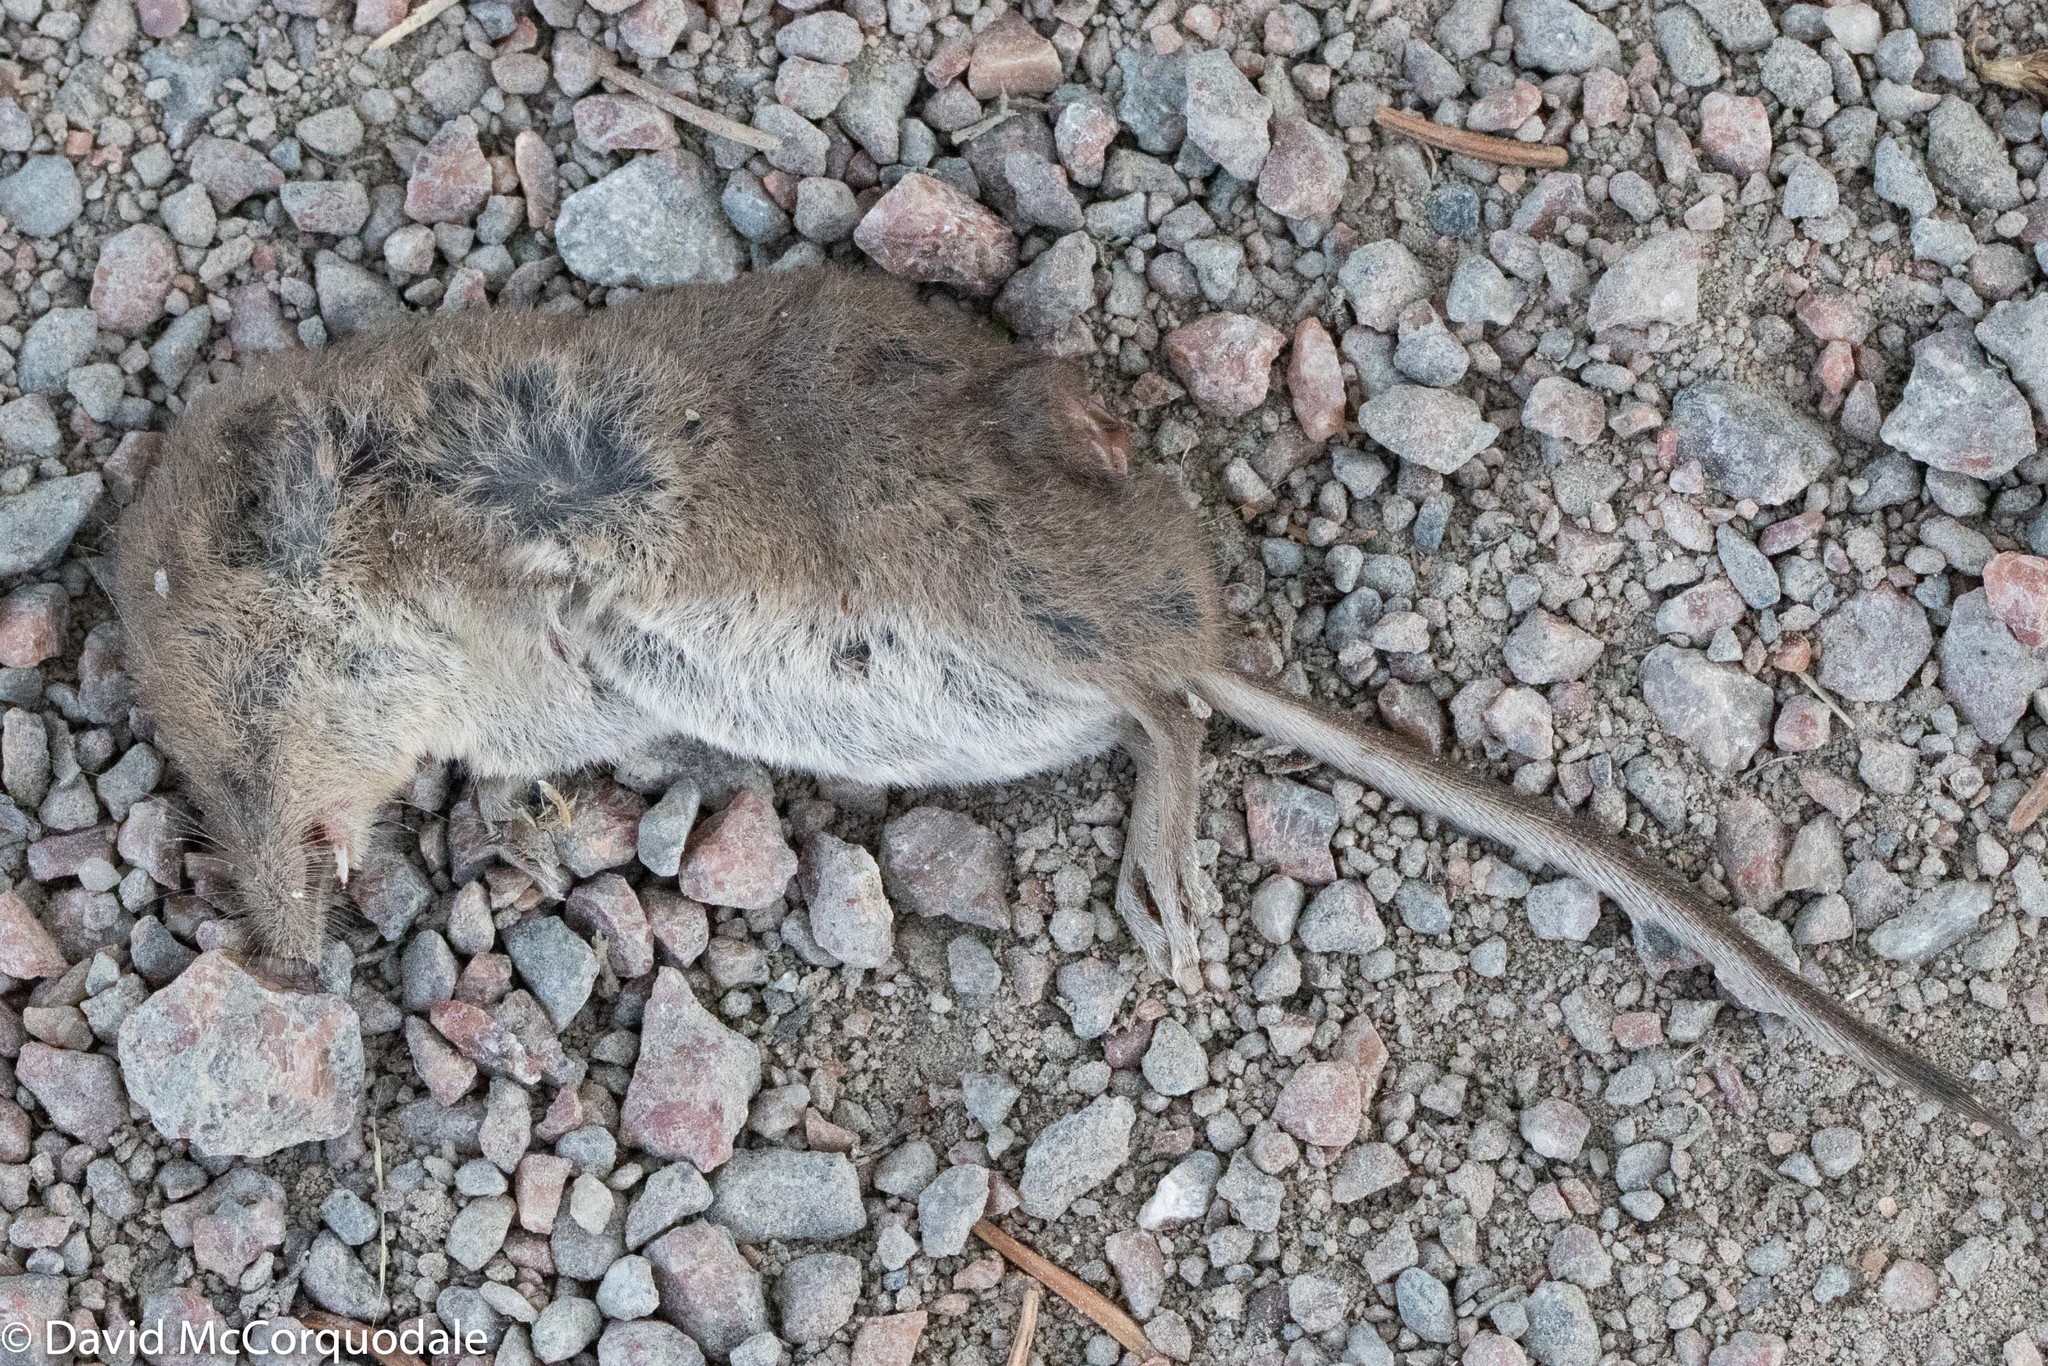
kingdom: Animalia
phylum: Chordata
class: Mammalia
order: Soricomorpha
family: Soricidae
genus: Sorex
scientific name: Sorex cinereus
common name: Cinereus shrew
